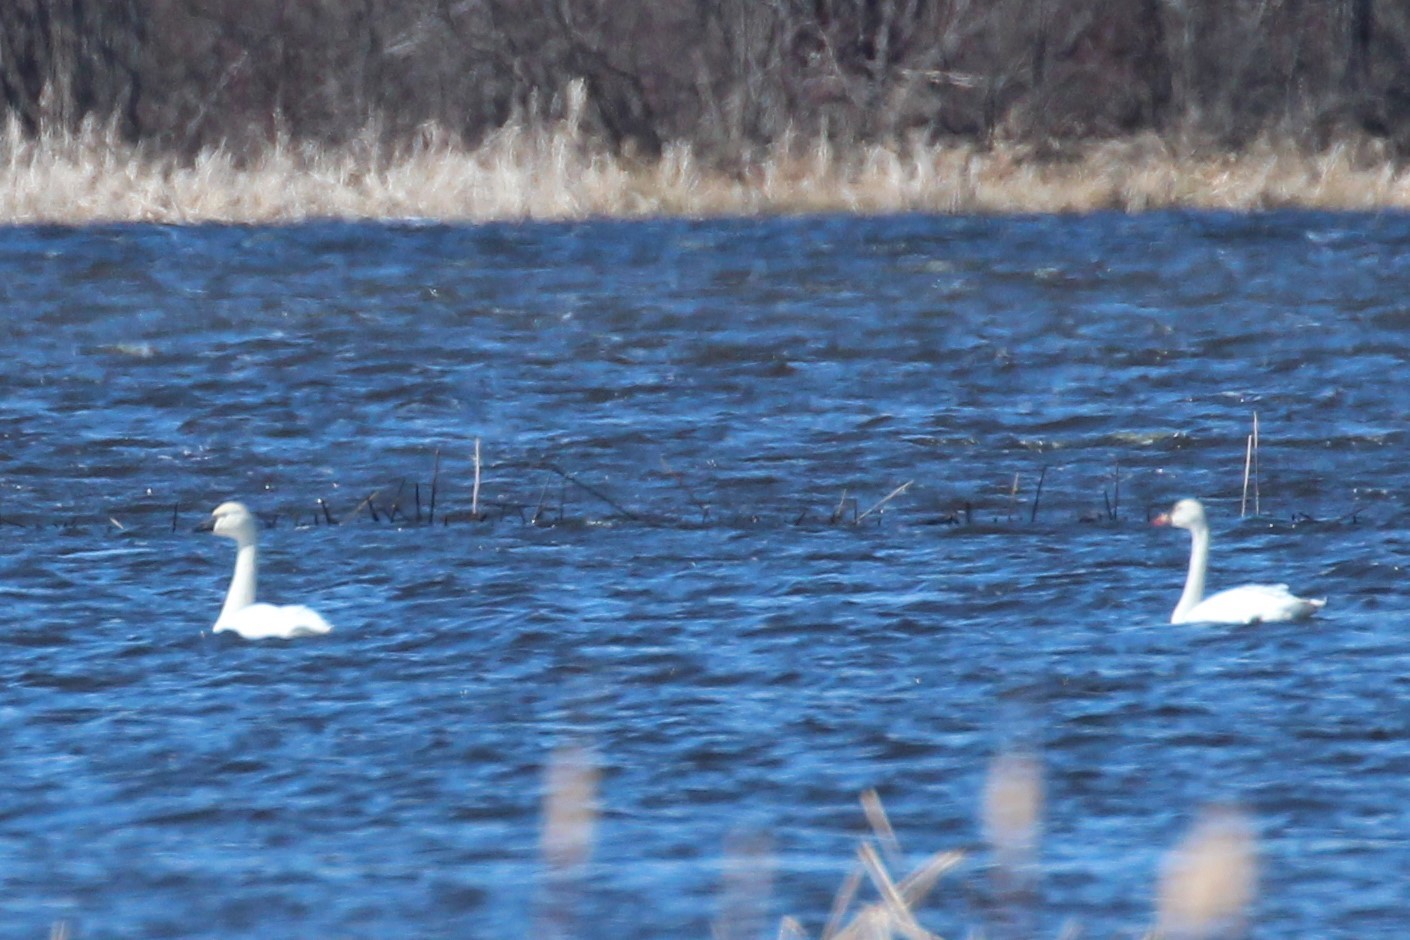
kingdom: Animalia
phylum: Chordata
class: Aves
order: Anseriformes
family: Anatidae
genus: Cygnus
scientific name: Cygnus columbianus
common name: Tundra swan
